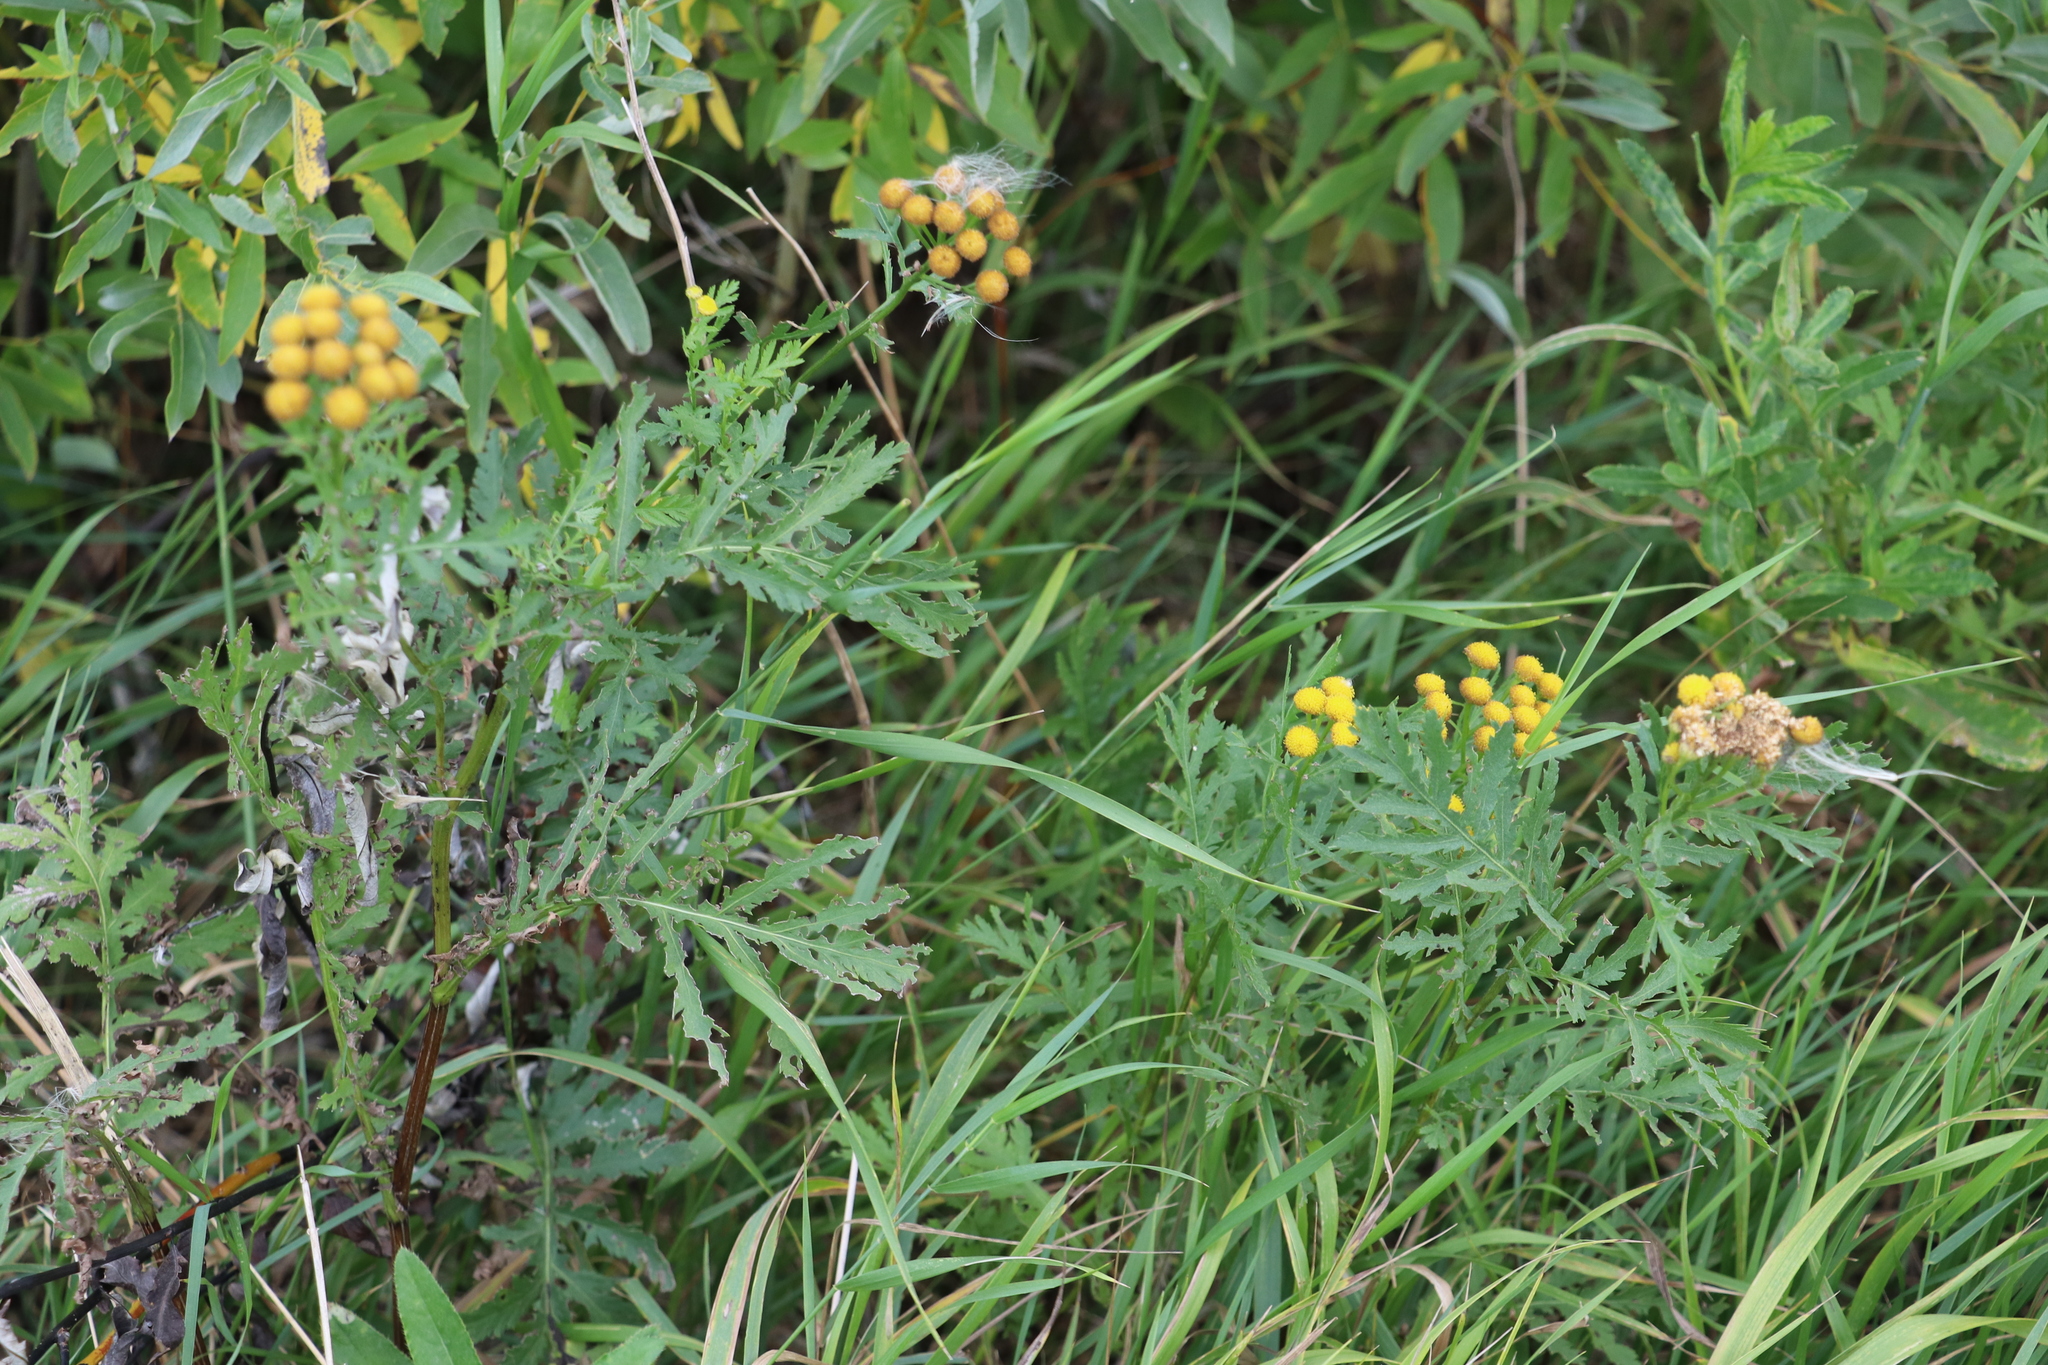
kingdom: Plantae
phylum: Tracheophyta
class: Magnoliopsida
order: Asterales
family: Asteraceae
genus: Tanacetum
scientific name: Tanacetum vulgare
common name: Common tansy
